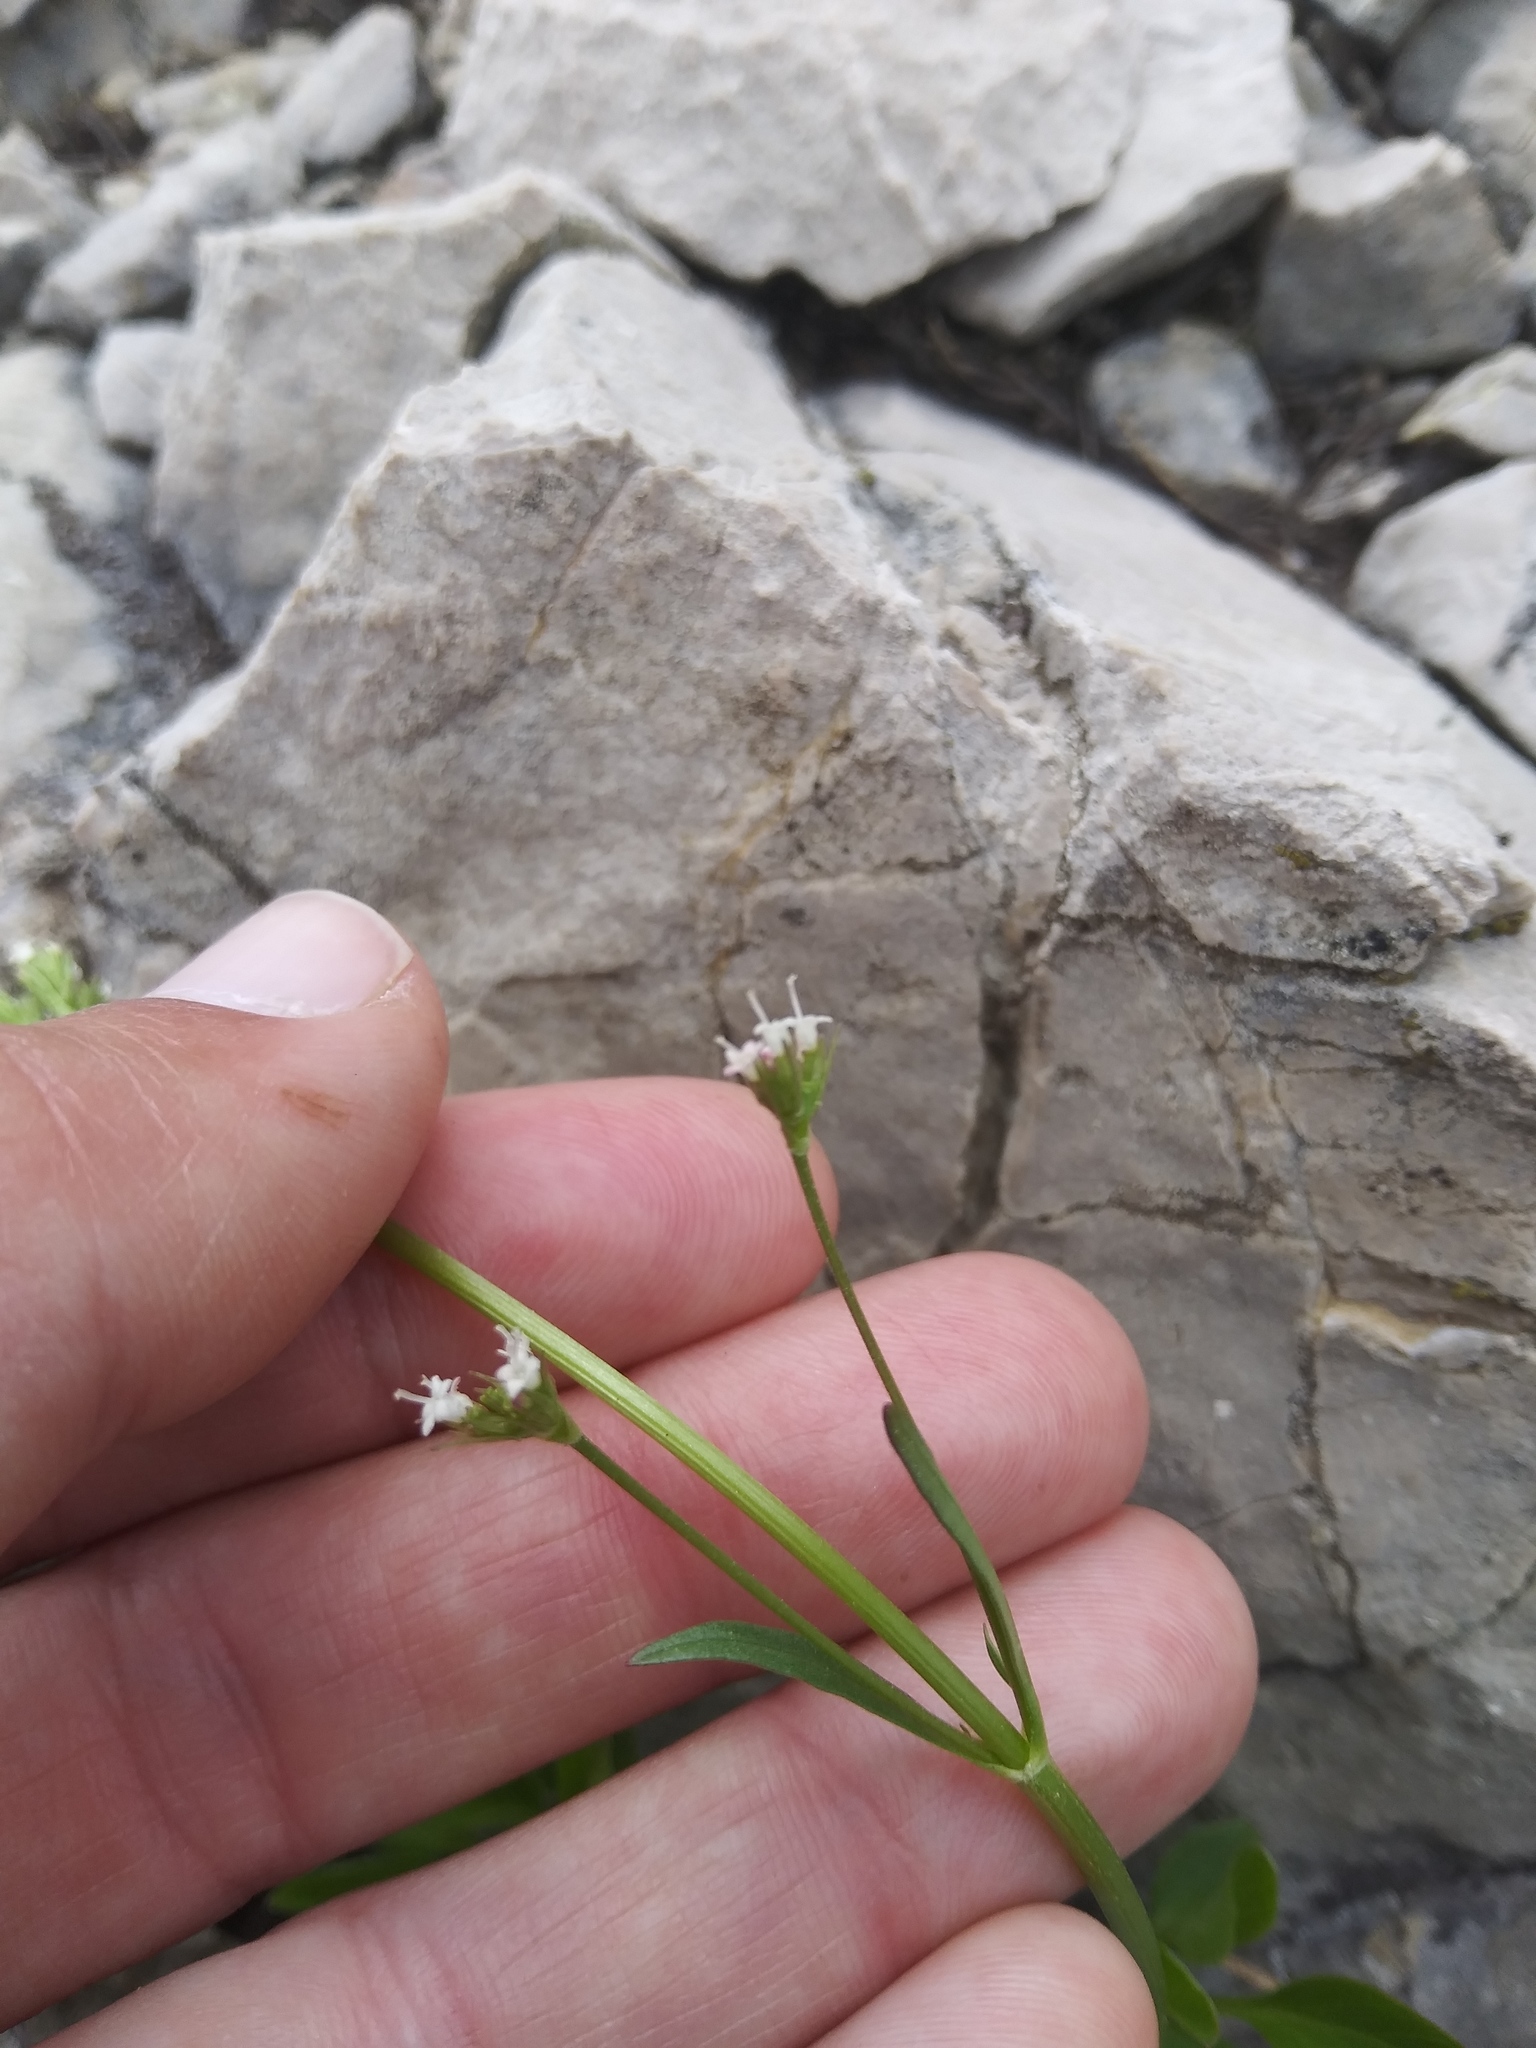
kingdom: Plantae
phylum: Tracheophyta
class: Magnoliopsida
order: Dipsacales
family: Caprifoliaceae
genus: Valeriana
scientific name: Valeriana dioica
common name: Marsh valerian
